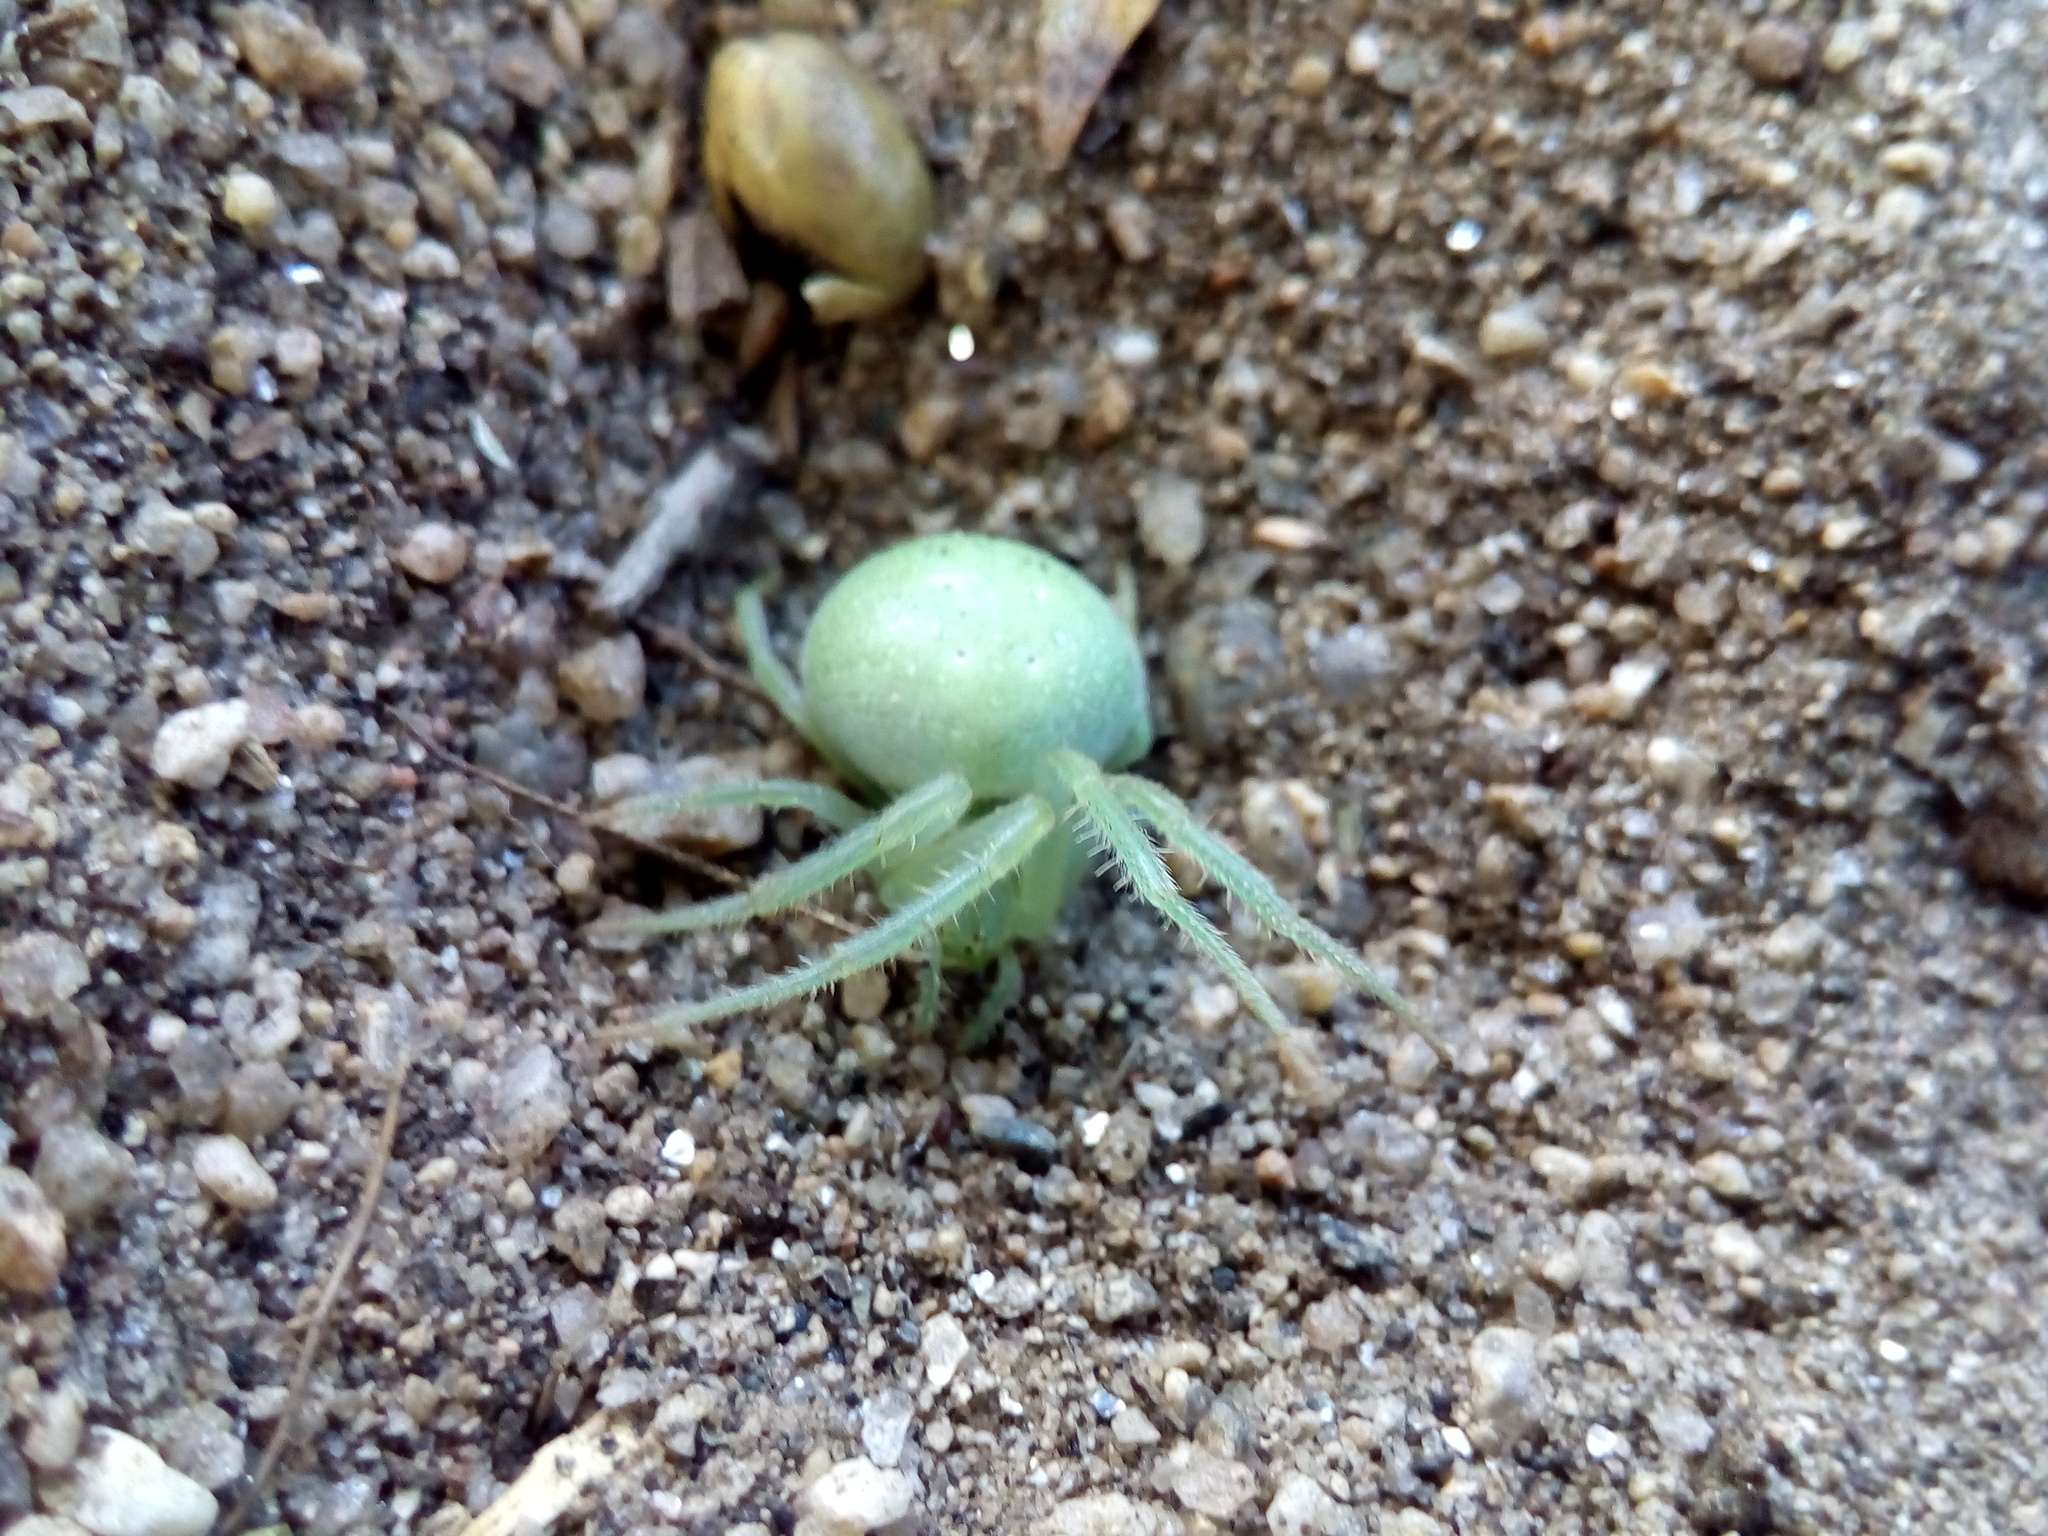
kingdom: Animalia
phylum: Arthropoda
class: Arachnida
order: Araneae
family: Araneidae
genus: Araneus
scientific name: Araneus uniformis
